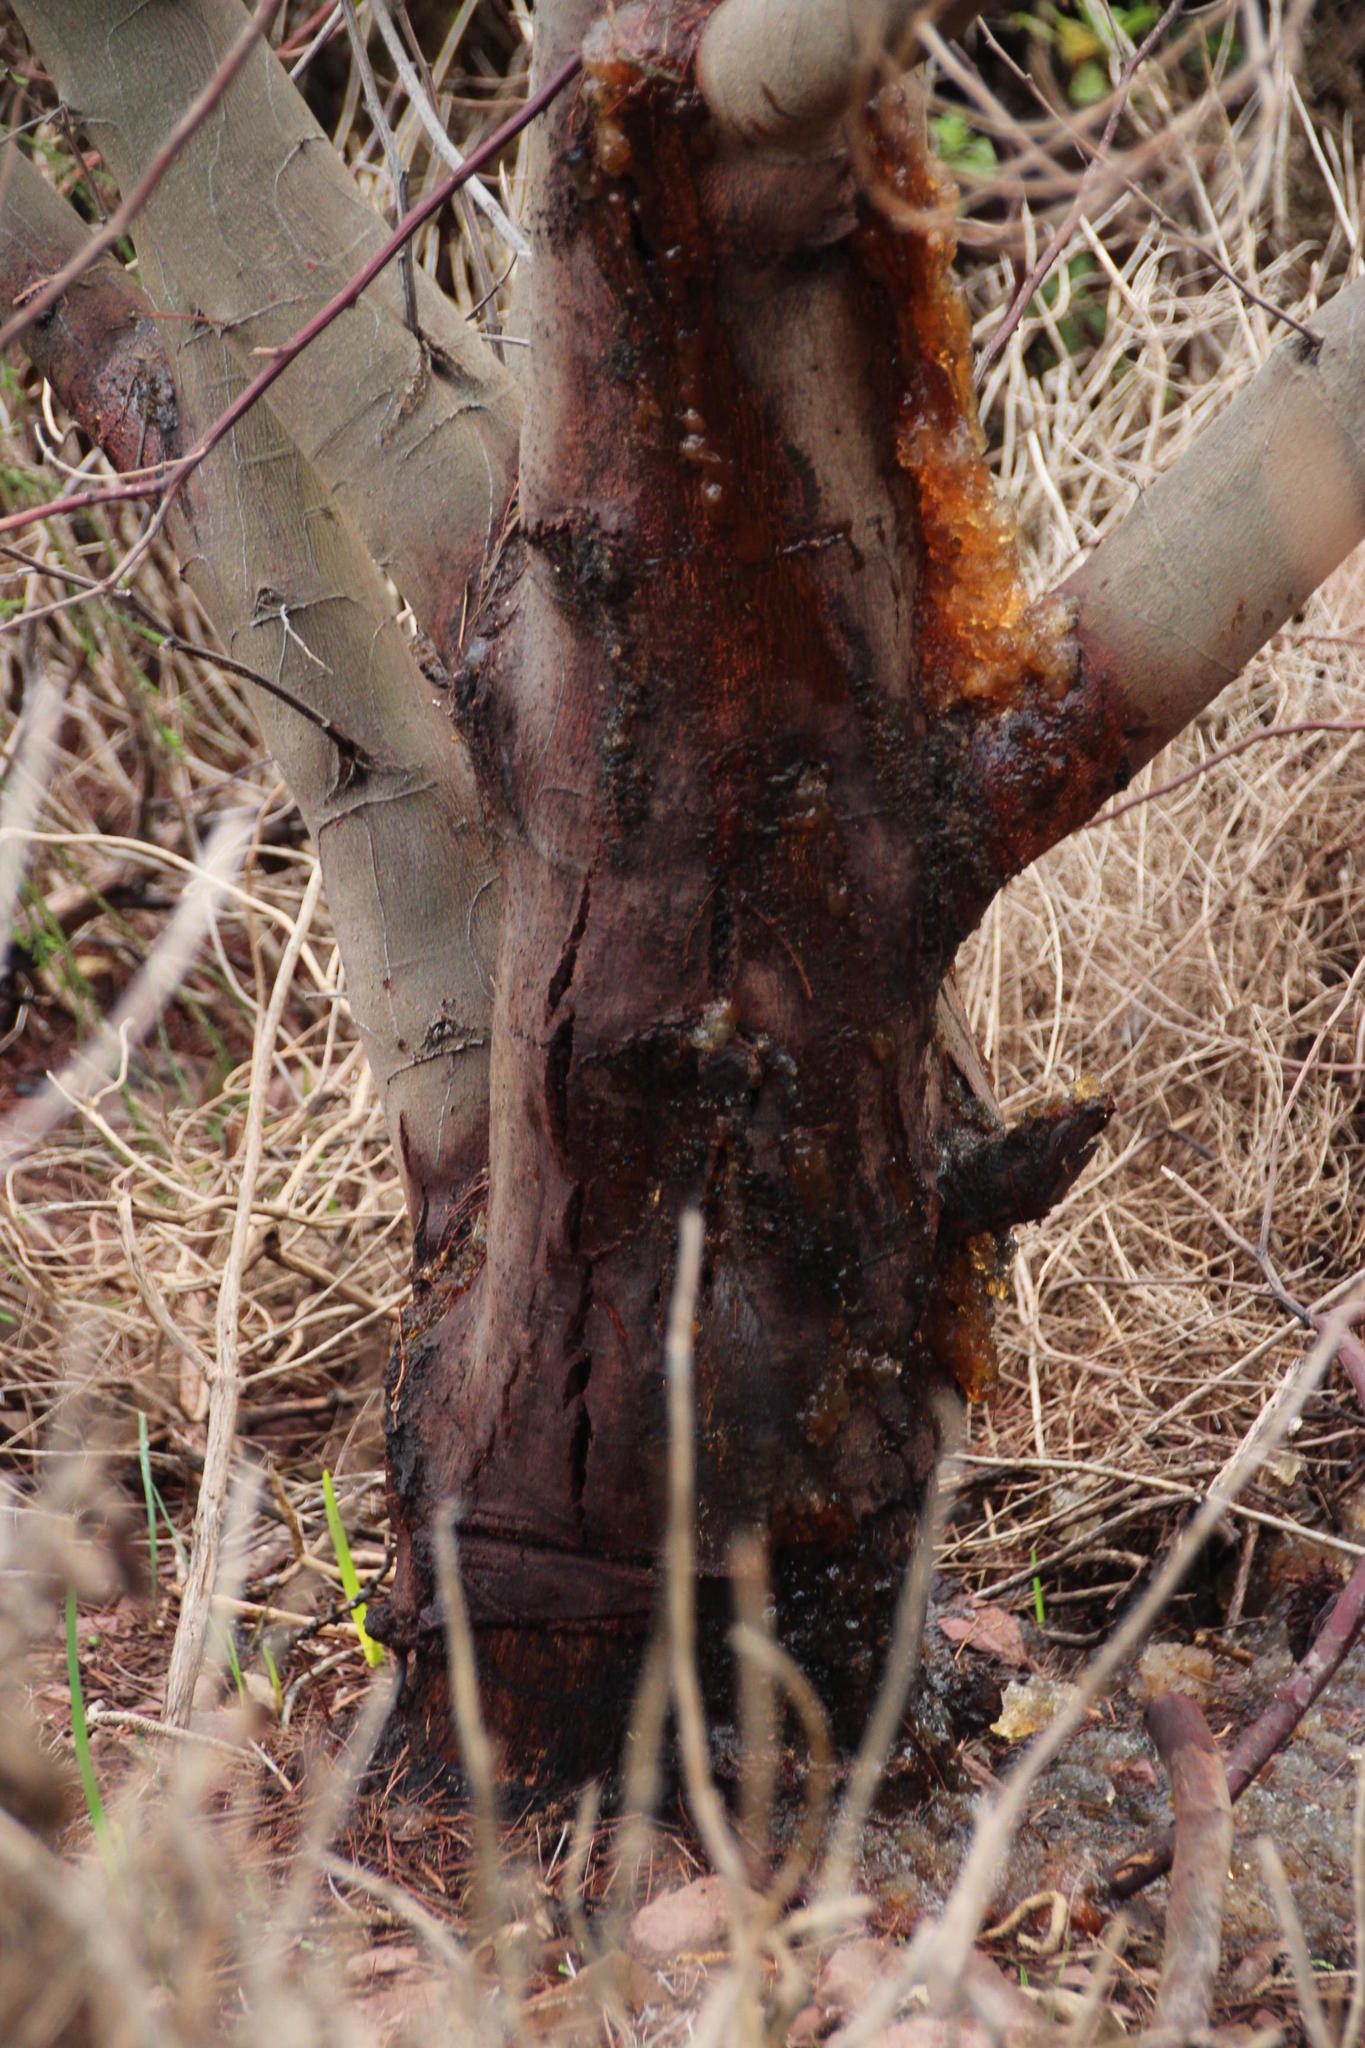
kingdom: Plantae
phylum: Tracheophyta
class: Magnoliopsida
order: Fabales
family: Fabaceae
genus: Acacia
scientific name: Acacia mearnsii
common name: Black wattle
